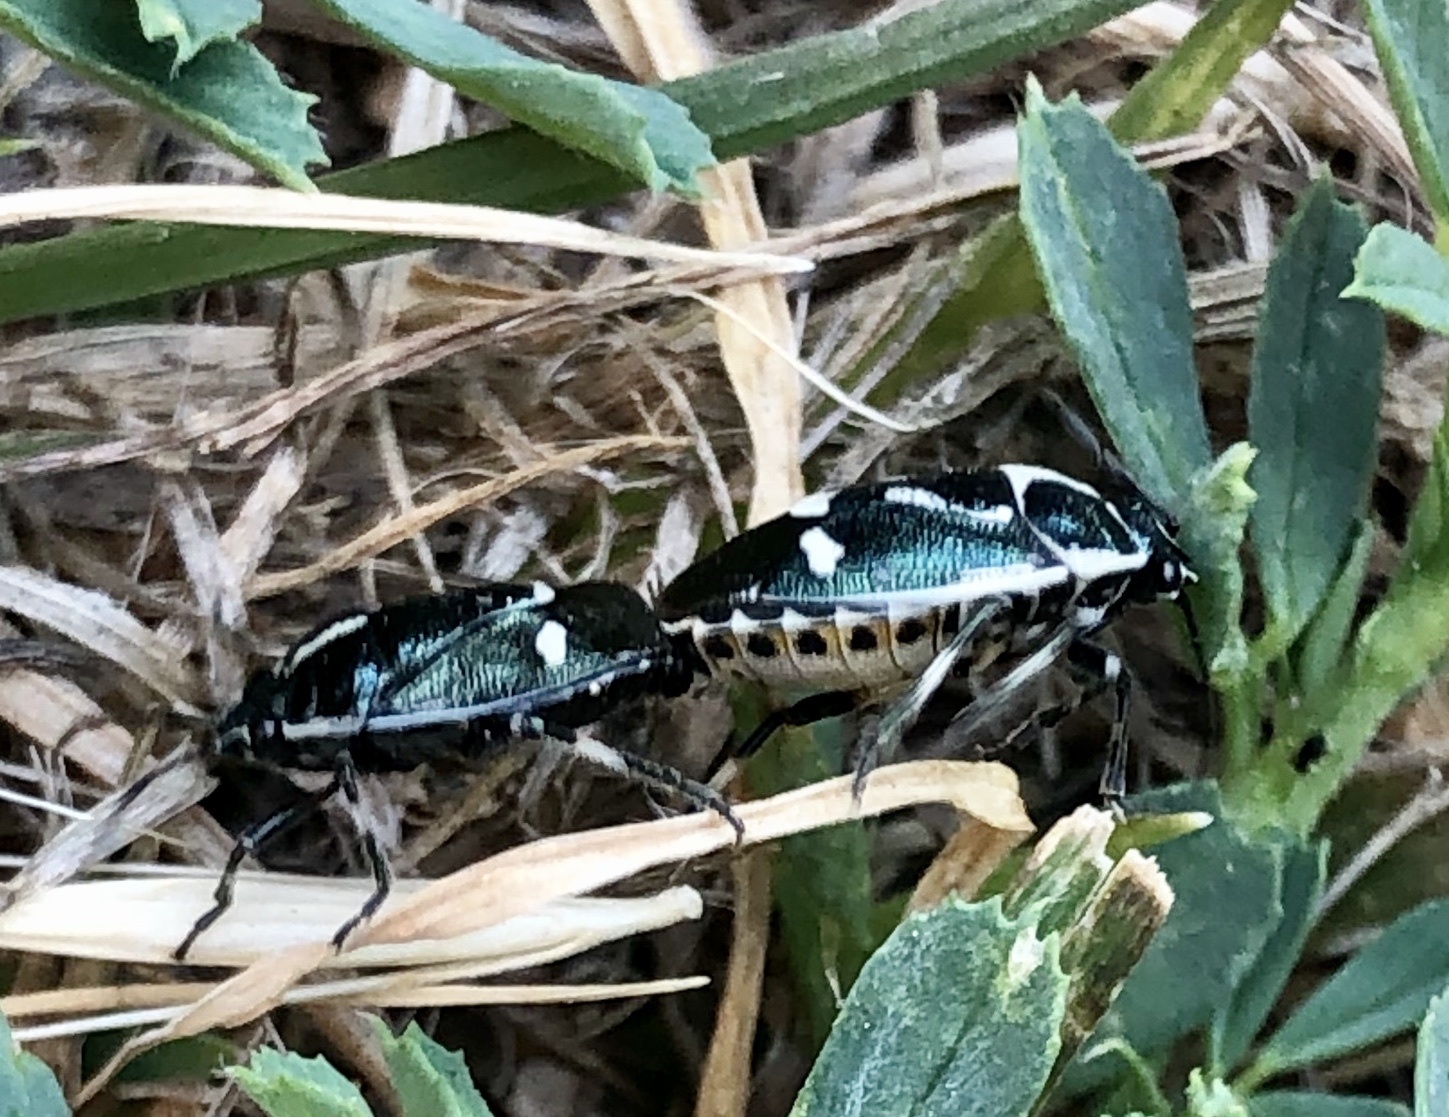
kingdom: Animalia
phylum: Arthropoda
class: Insecta
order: Hemiptera
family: Pentatomidae
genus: Eurydema
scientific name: Eurydema oleracea
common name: Cabbage bug
